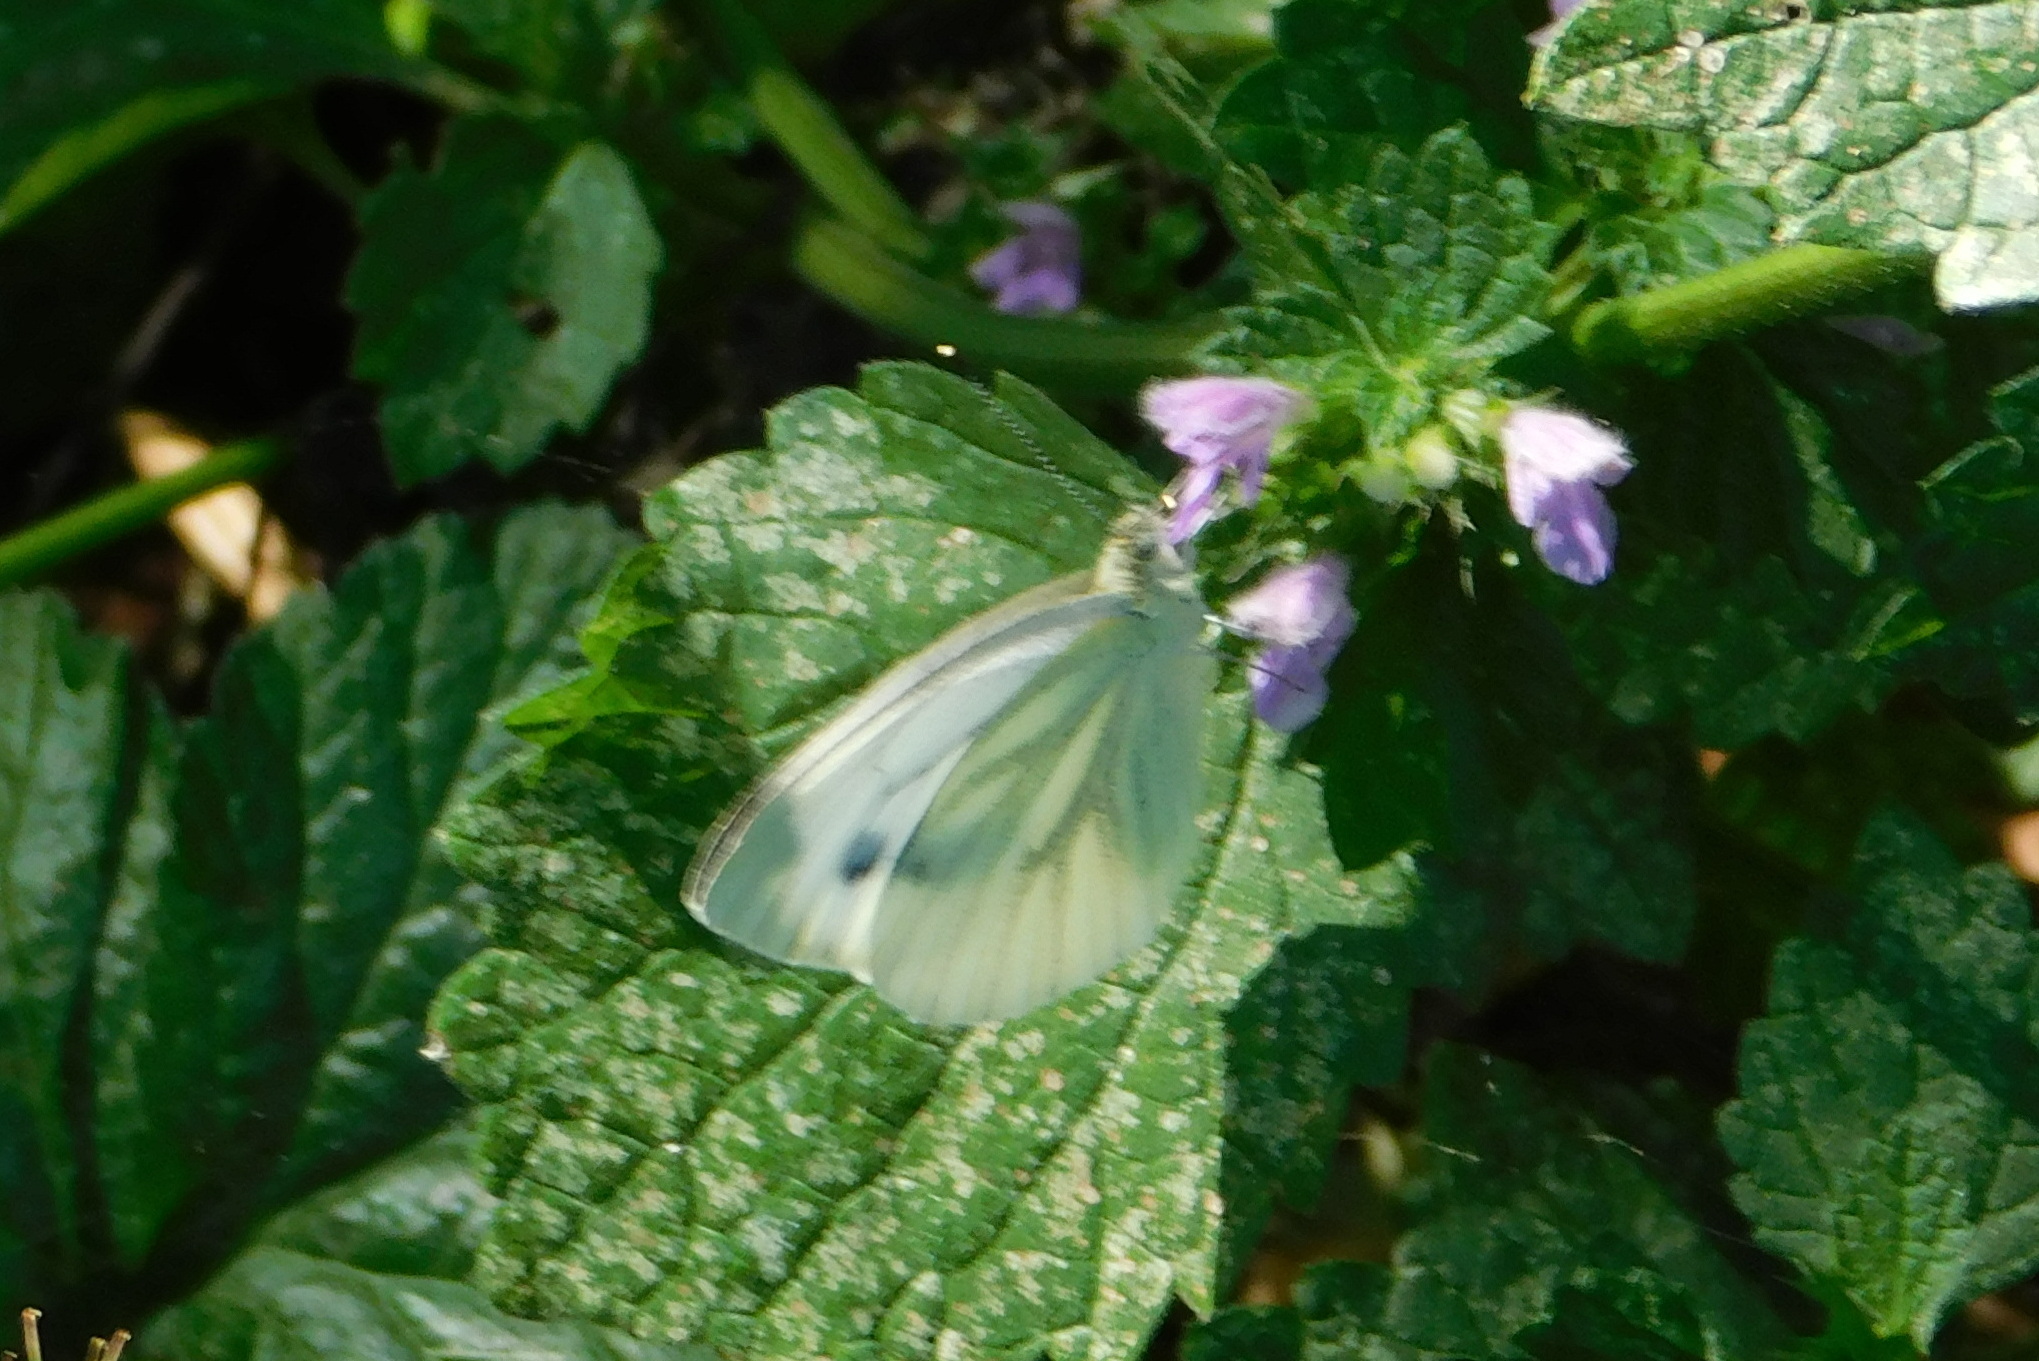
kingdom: Animalia
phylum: Arthropoda
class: Insecta
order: Lepidoptera
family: Pieridae
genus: Pieris
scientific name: Pieris napi
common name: Green-veined white
